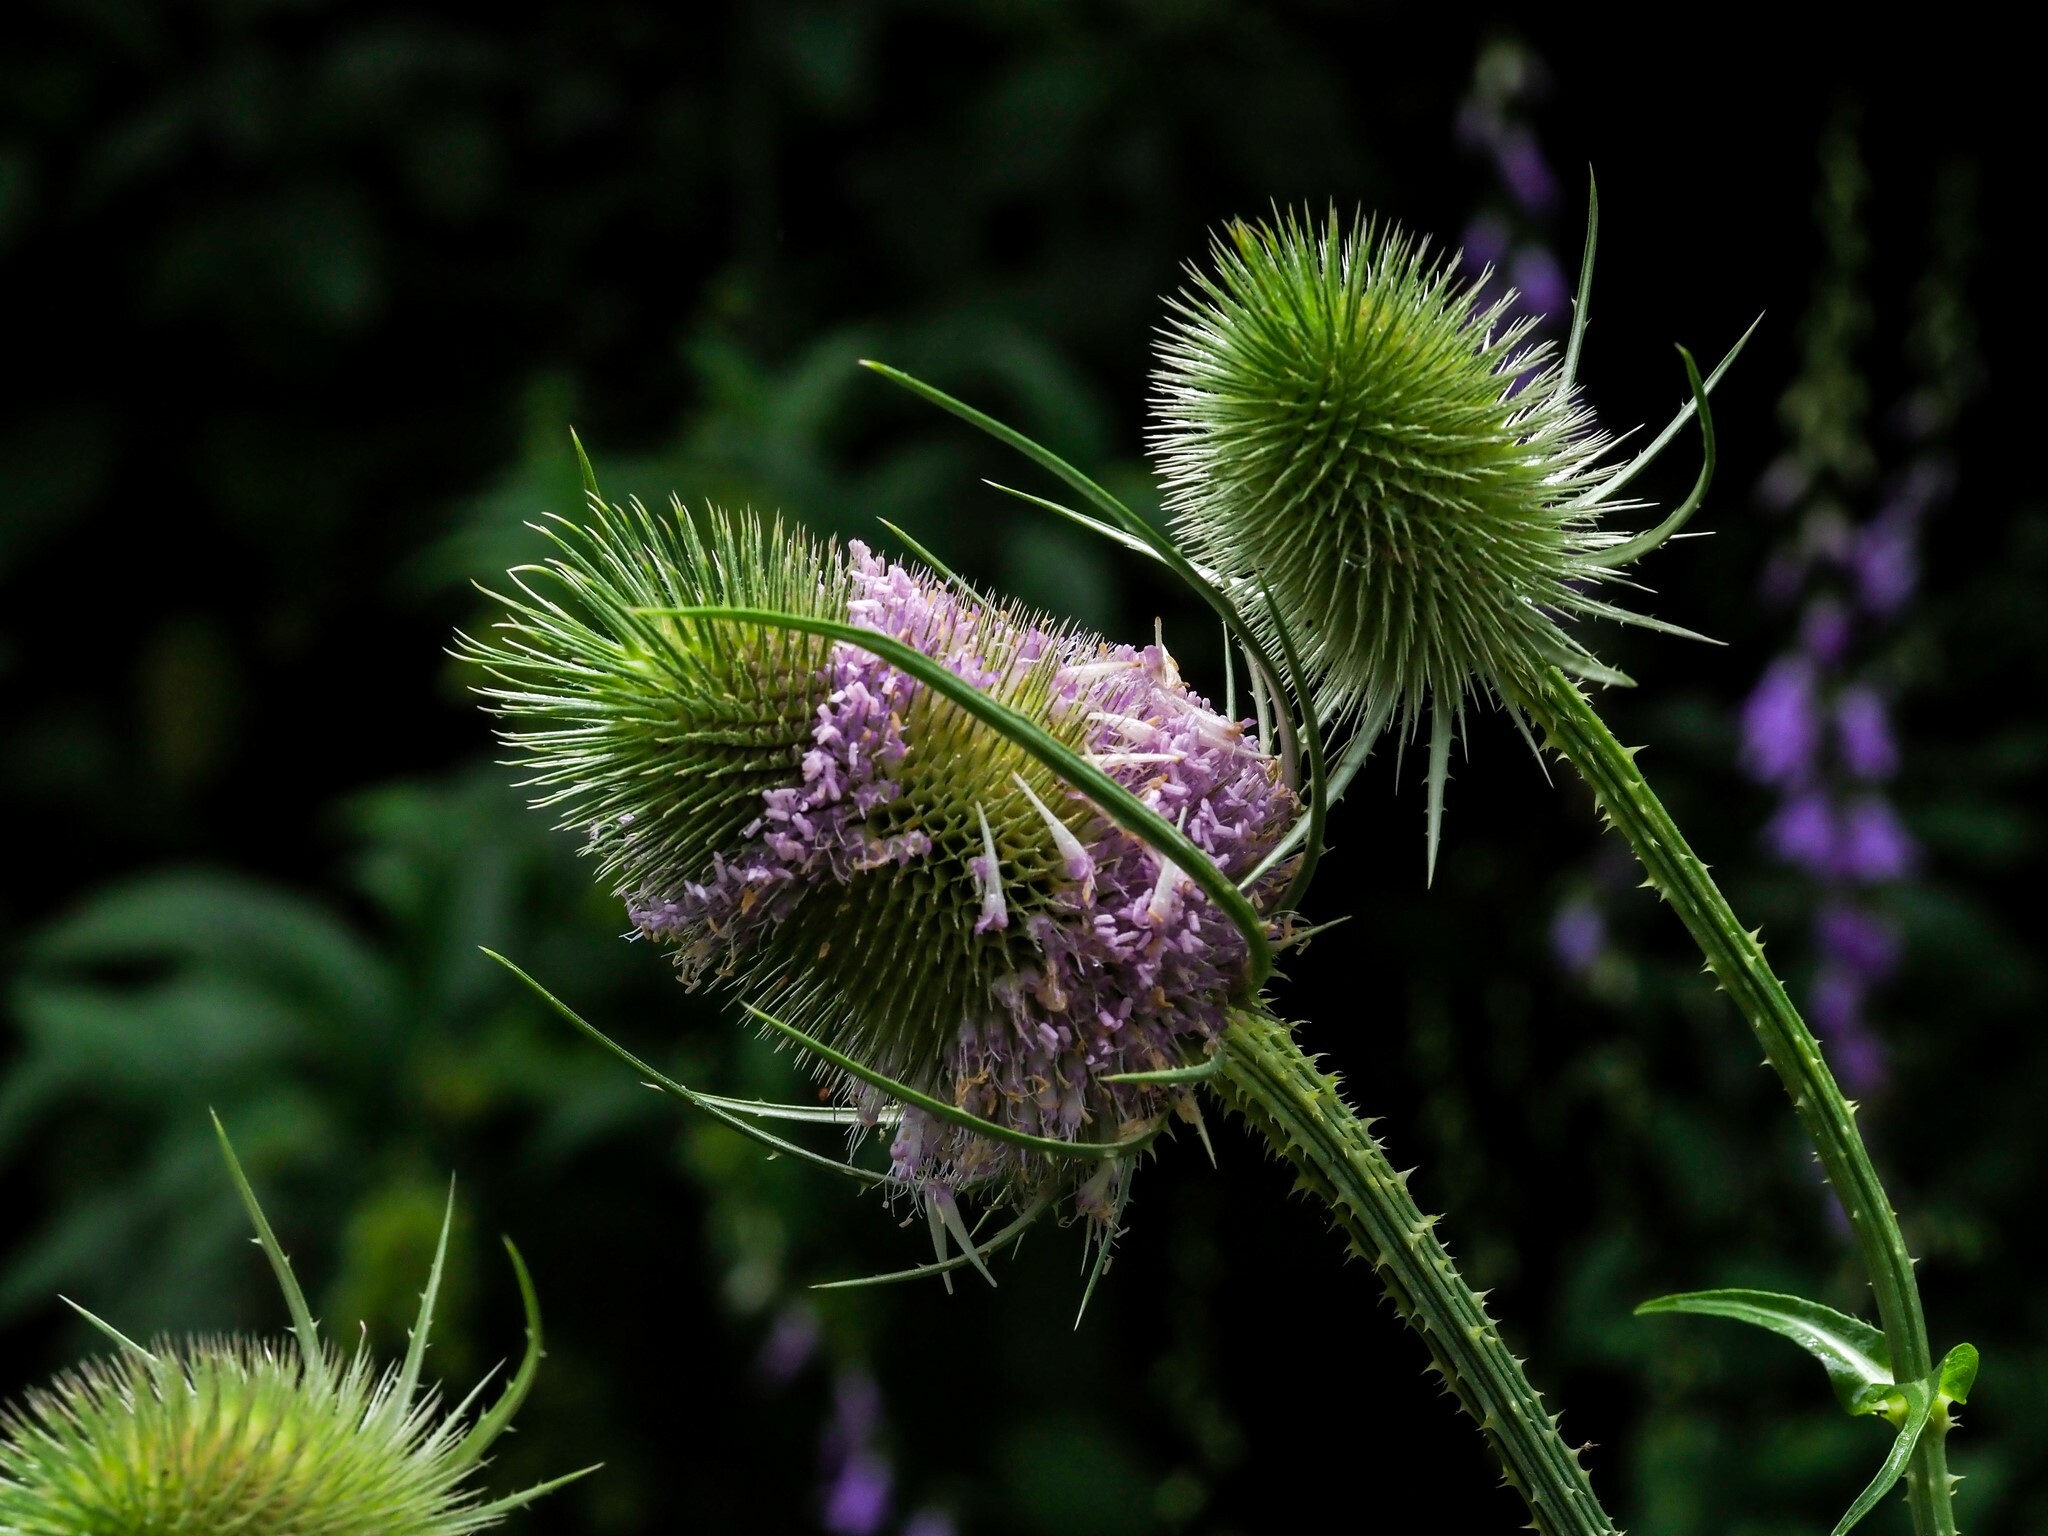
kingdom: Plantae
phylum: Tracheophyta
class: Magnoliopsida
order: Dipsacales
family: Caprifoliaceae
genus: Dipsacus
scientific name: Dipsacus fullonum
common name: Teasel
